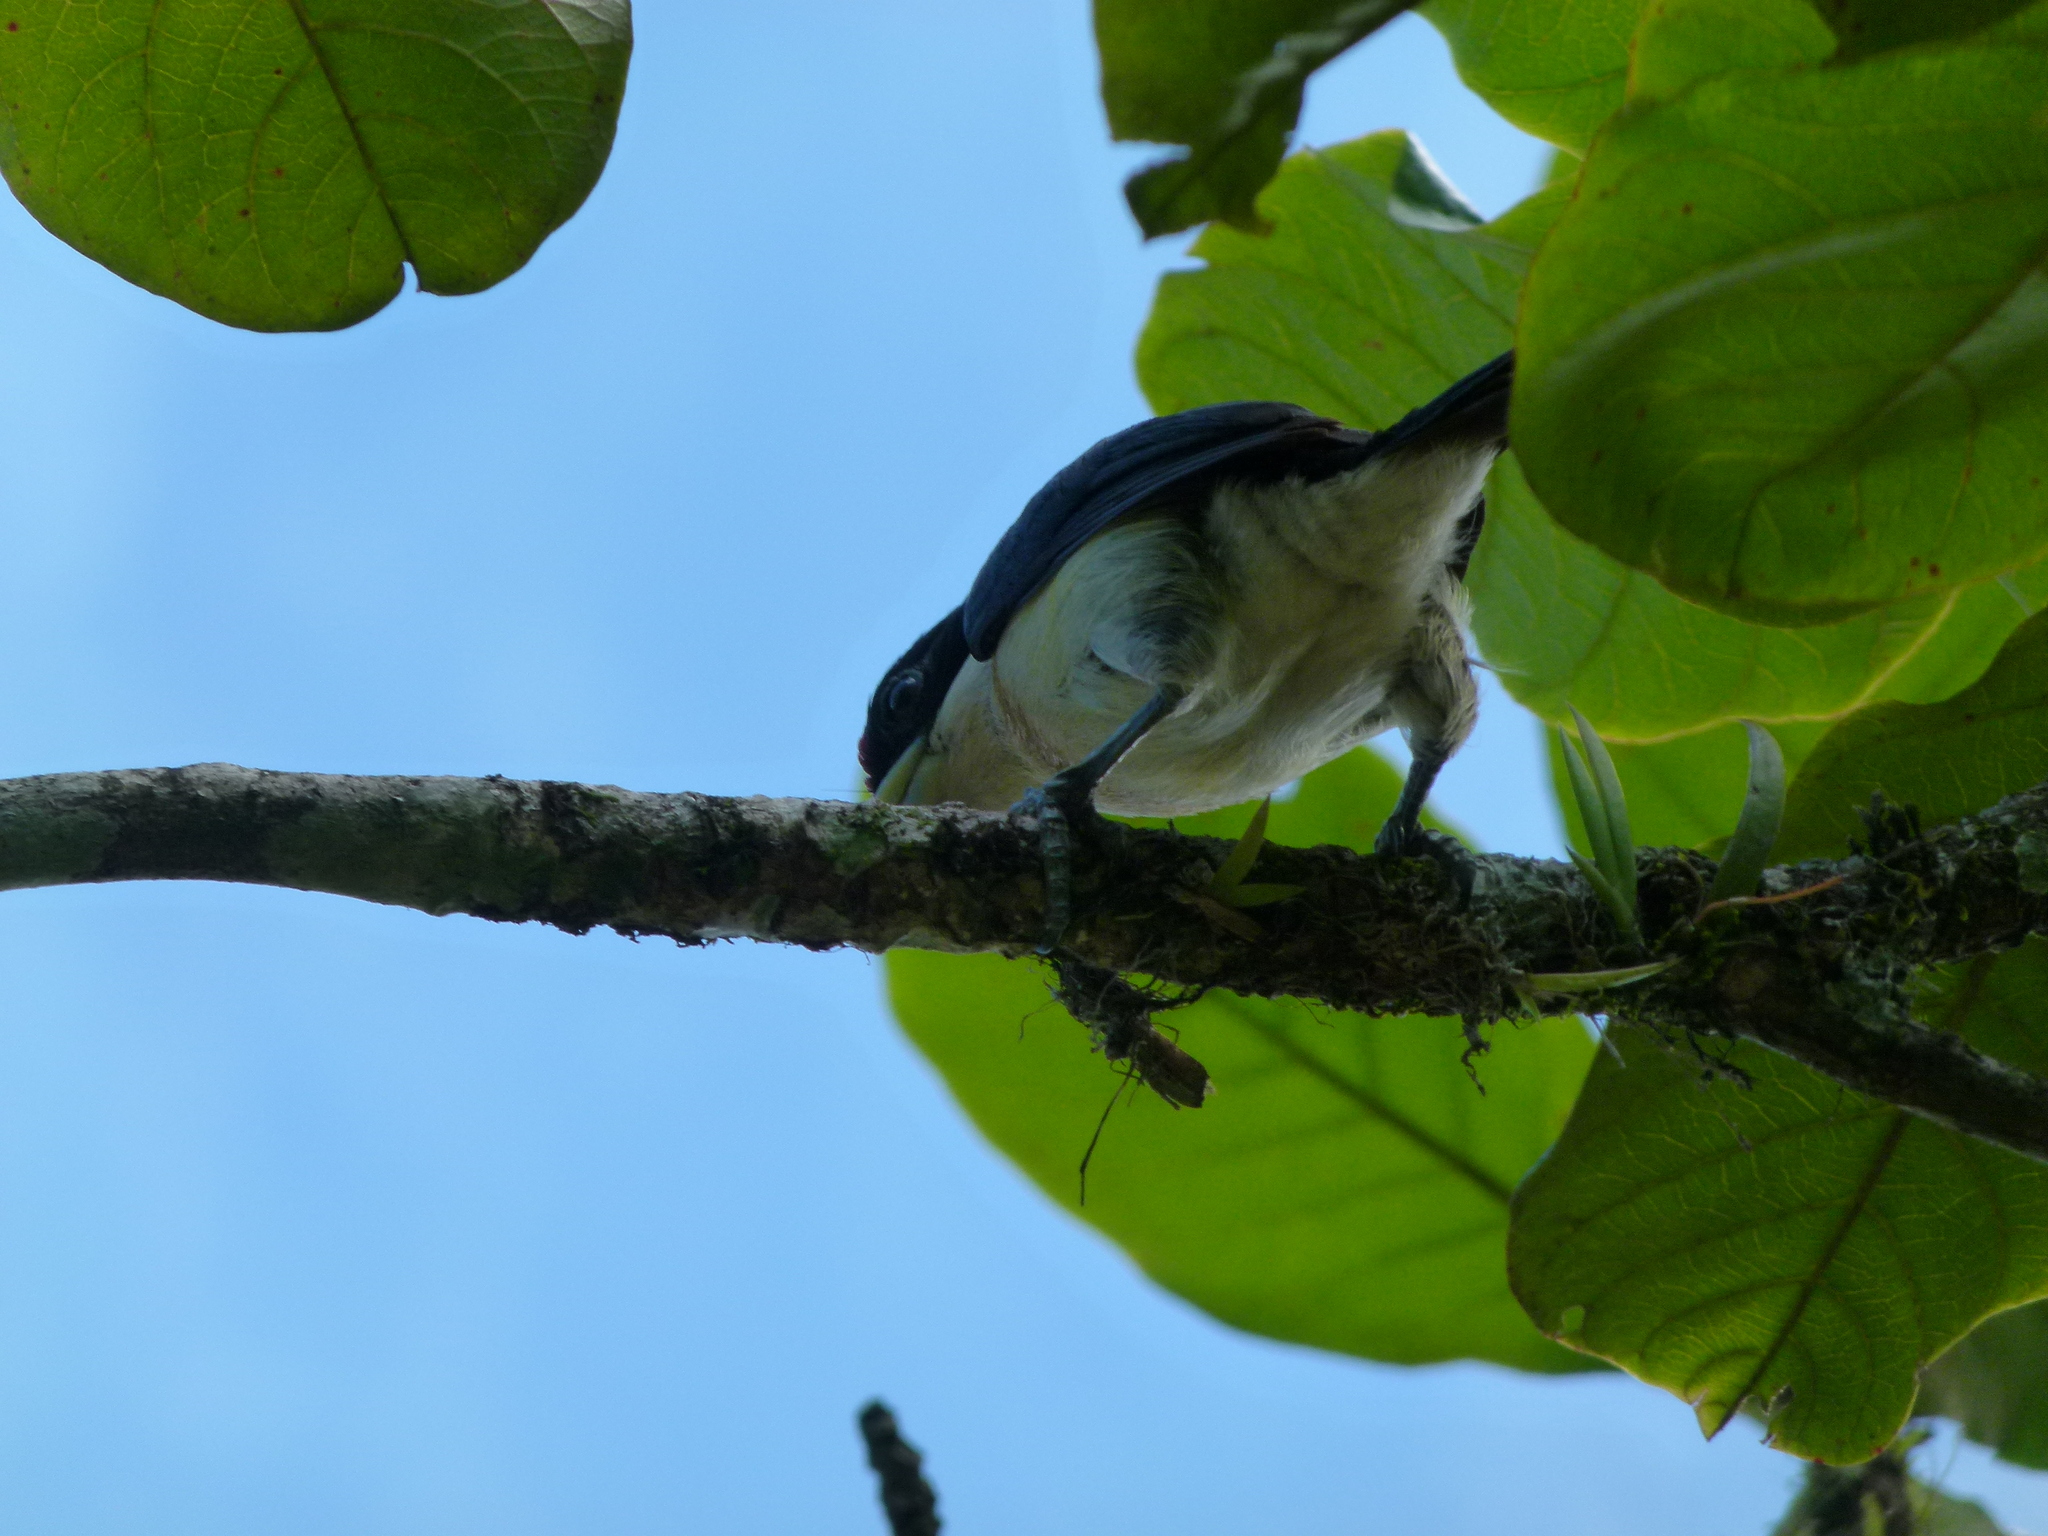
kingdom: Animalia
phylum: Chordata
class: Aves
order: Piciformes
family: Capitonidae
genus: Capito
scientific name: Capito hypoleucus
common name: White-mantled barbet
